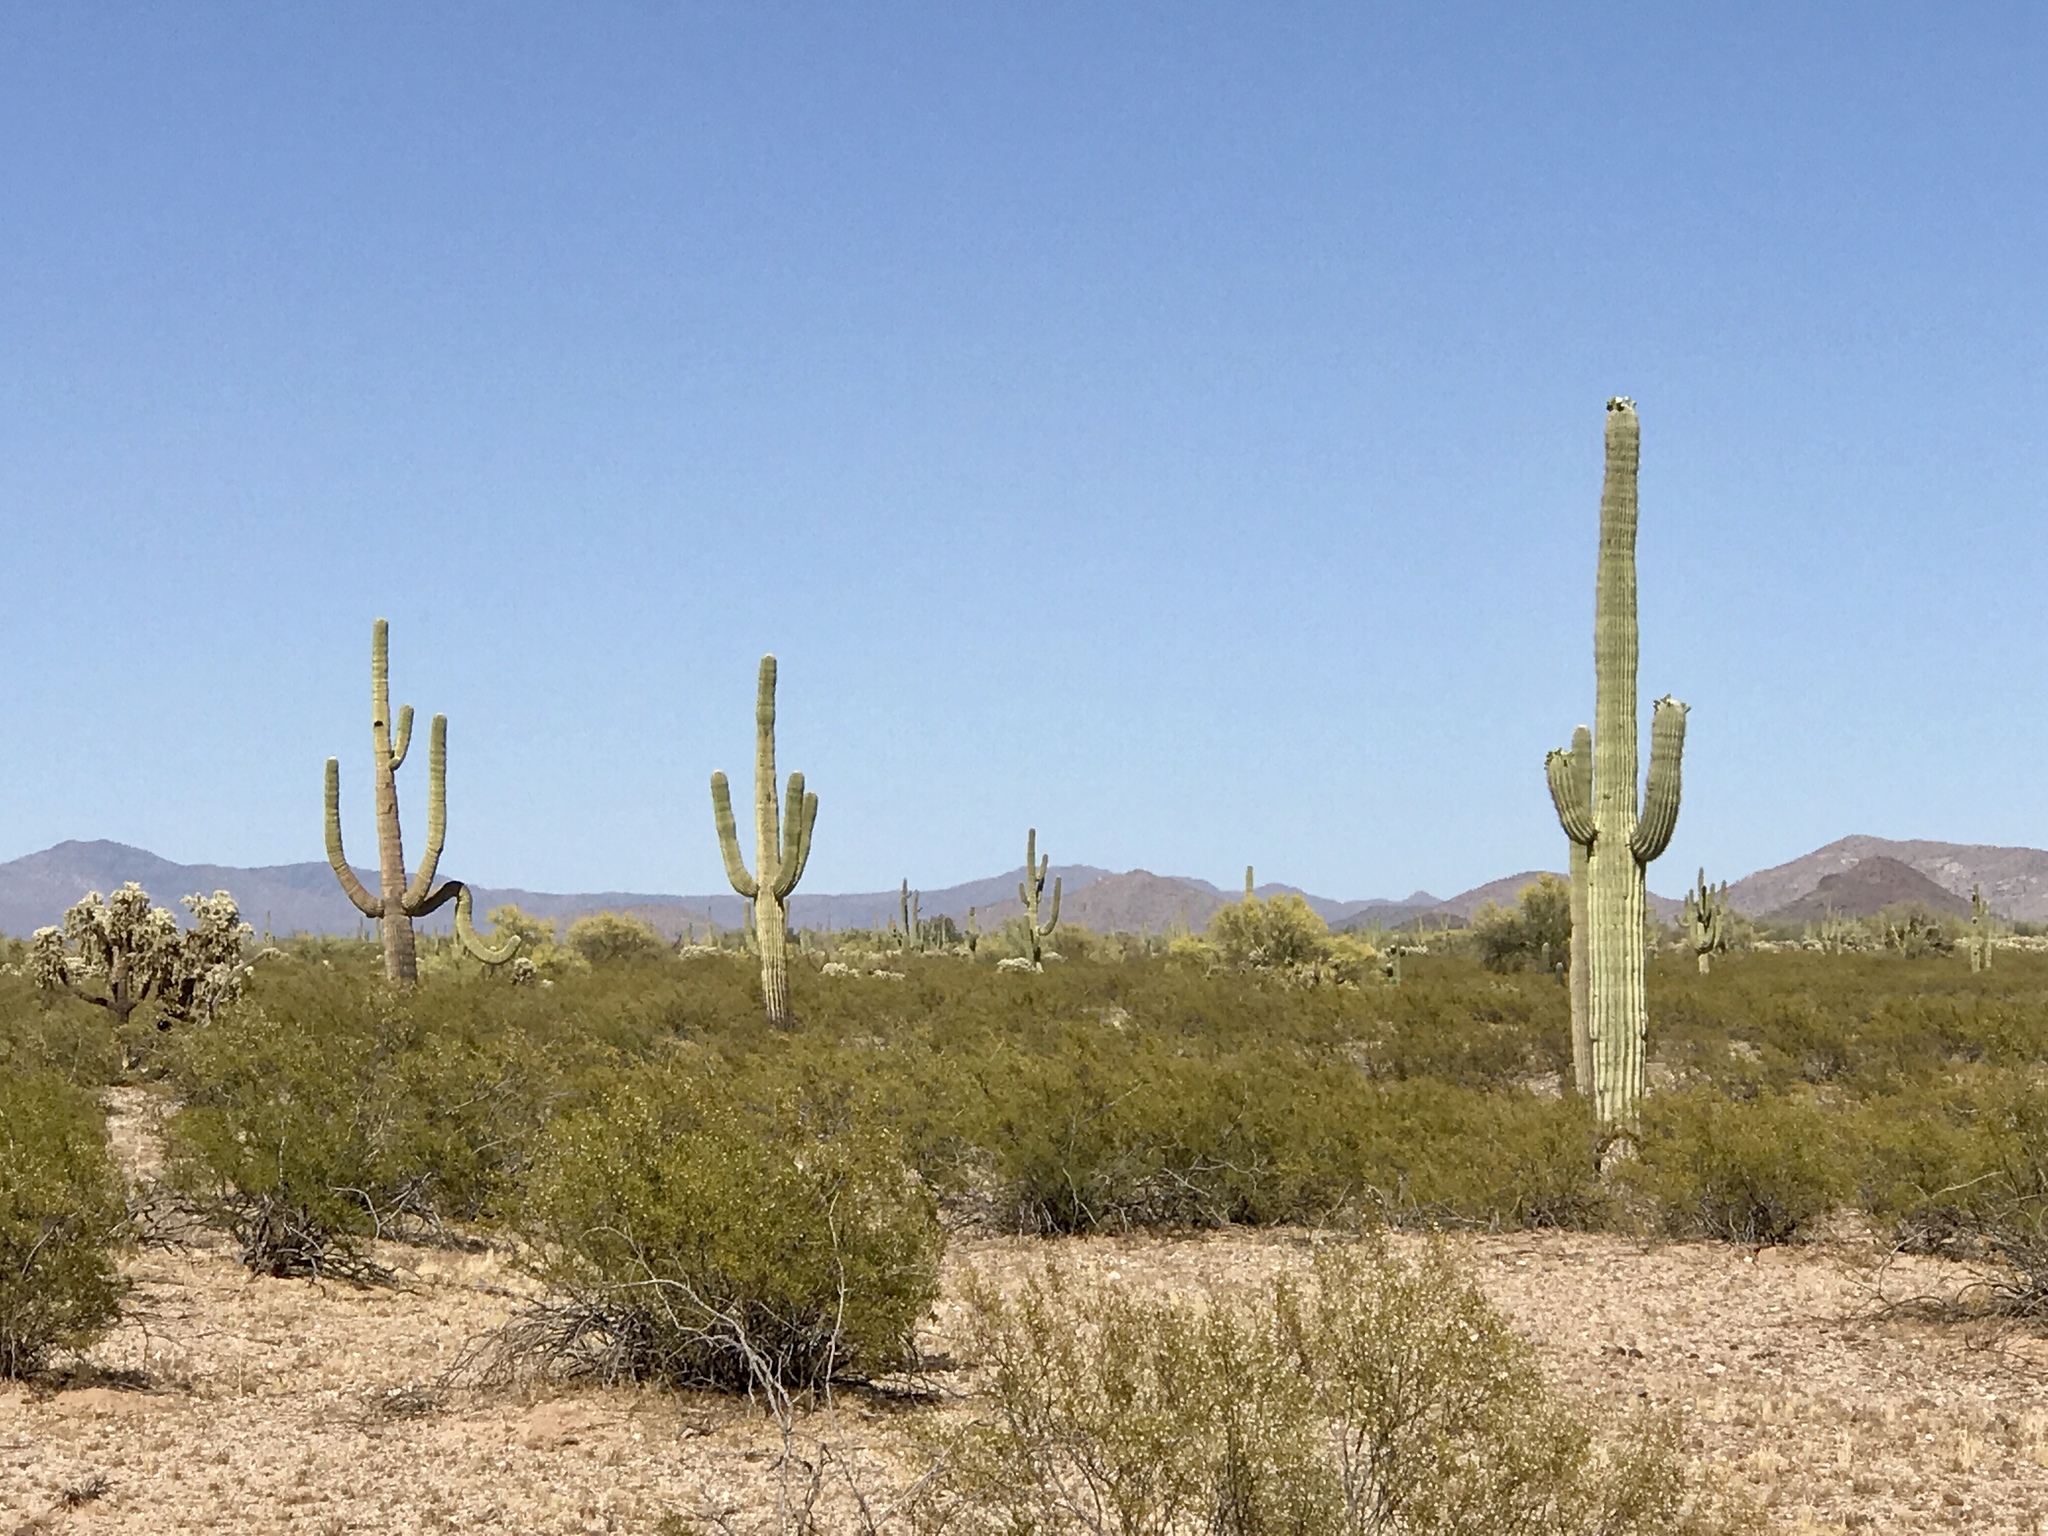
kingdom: Plantae
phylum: Tracheophyta
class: Magnoliopsida
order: Zygophyllales
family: Zygophyllaceae
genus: Larrea
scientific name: Larrea tridentata
